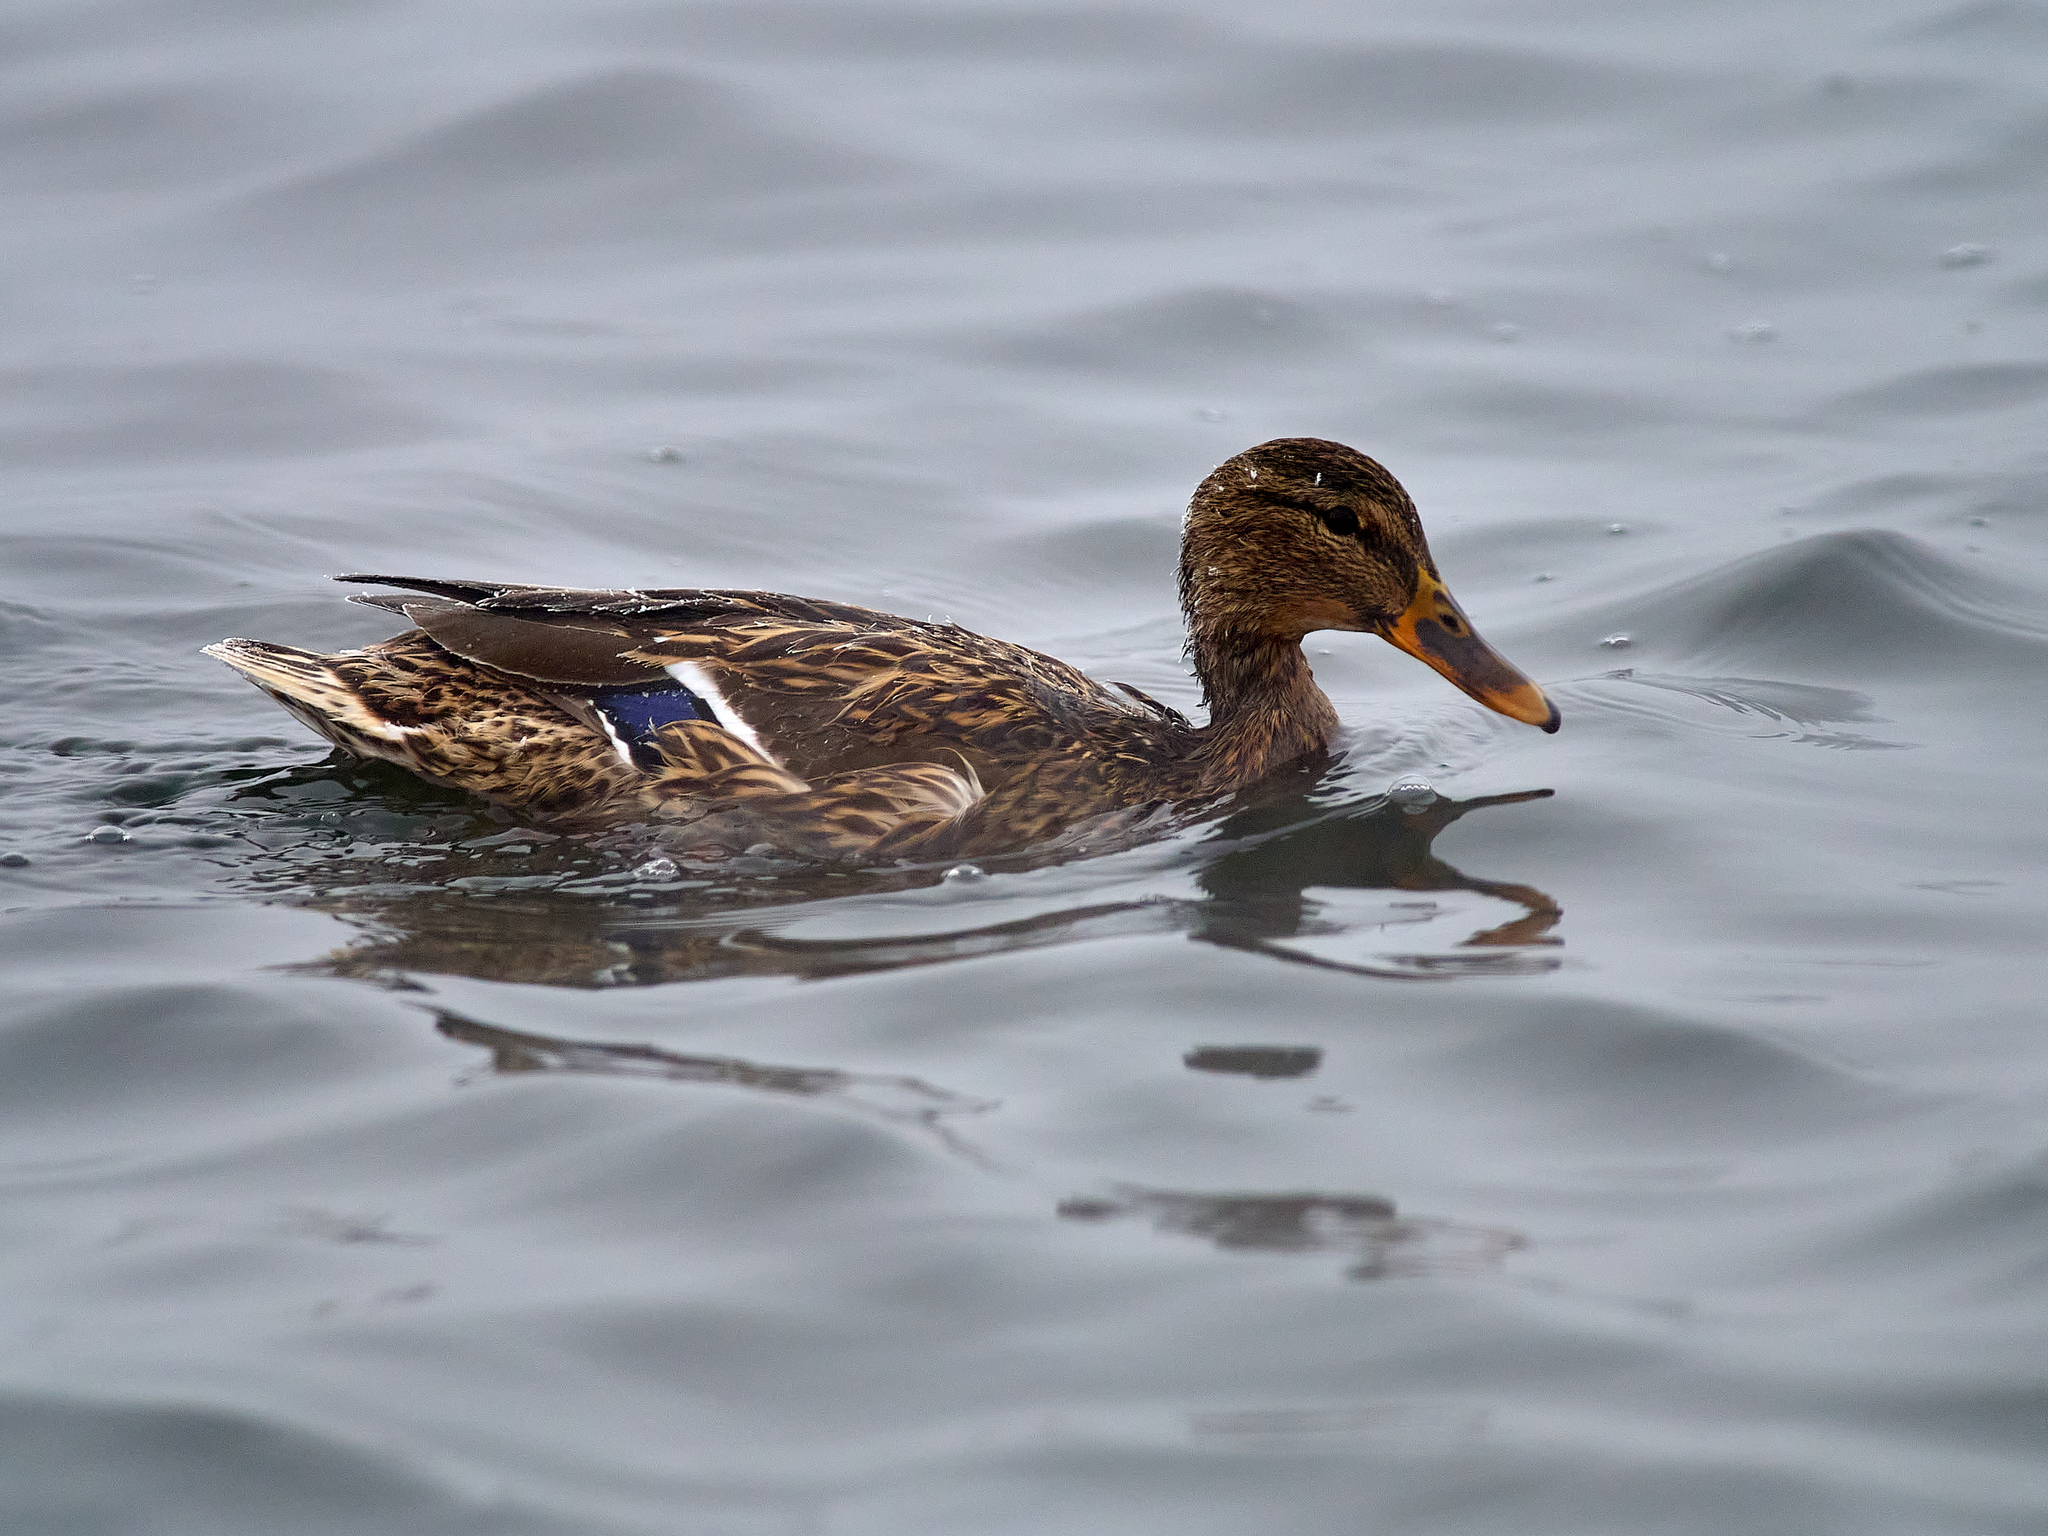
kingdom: Animalia
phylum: Chordata
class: Aves
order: Anseriformes
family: Anatidae
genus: Anas
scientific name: Anas platyrhynchos
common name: Mallard
